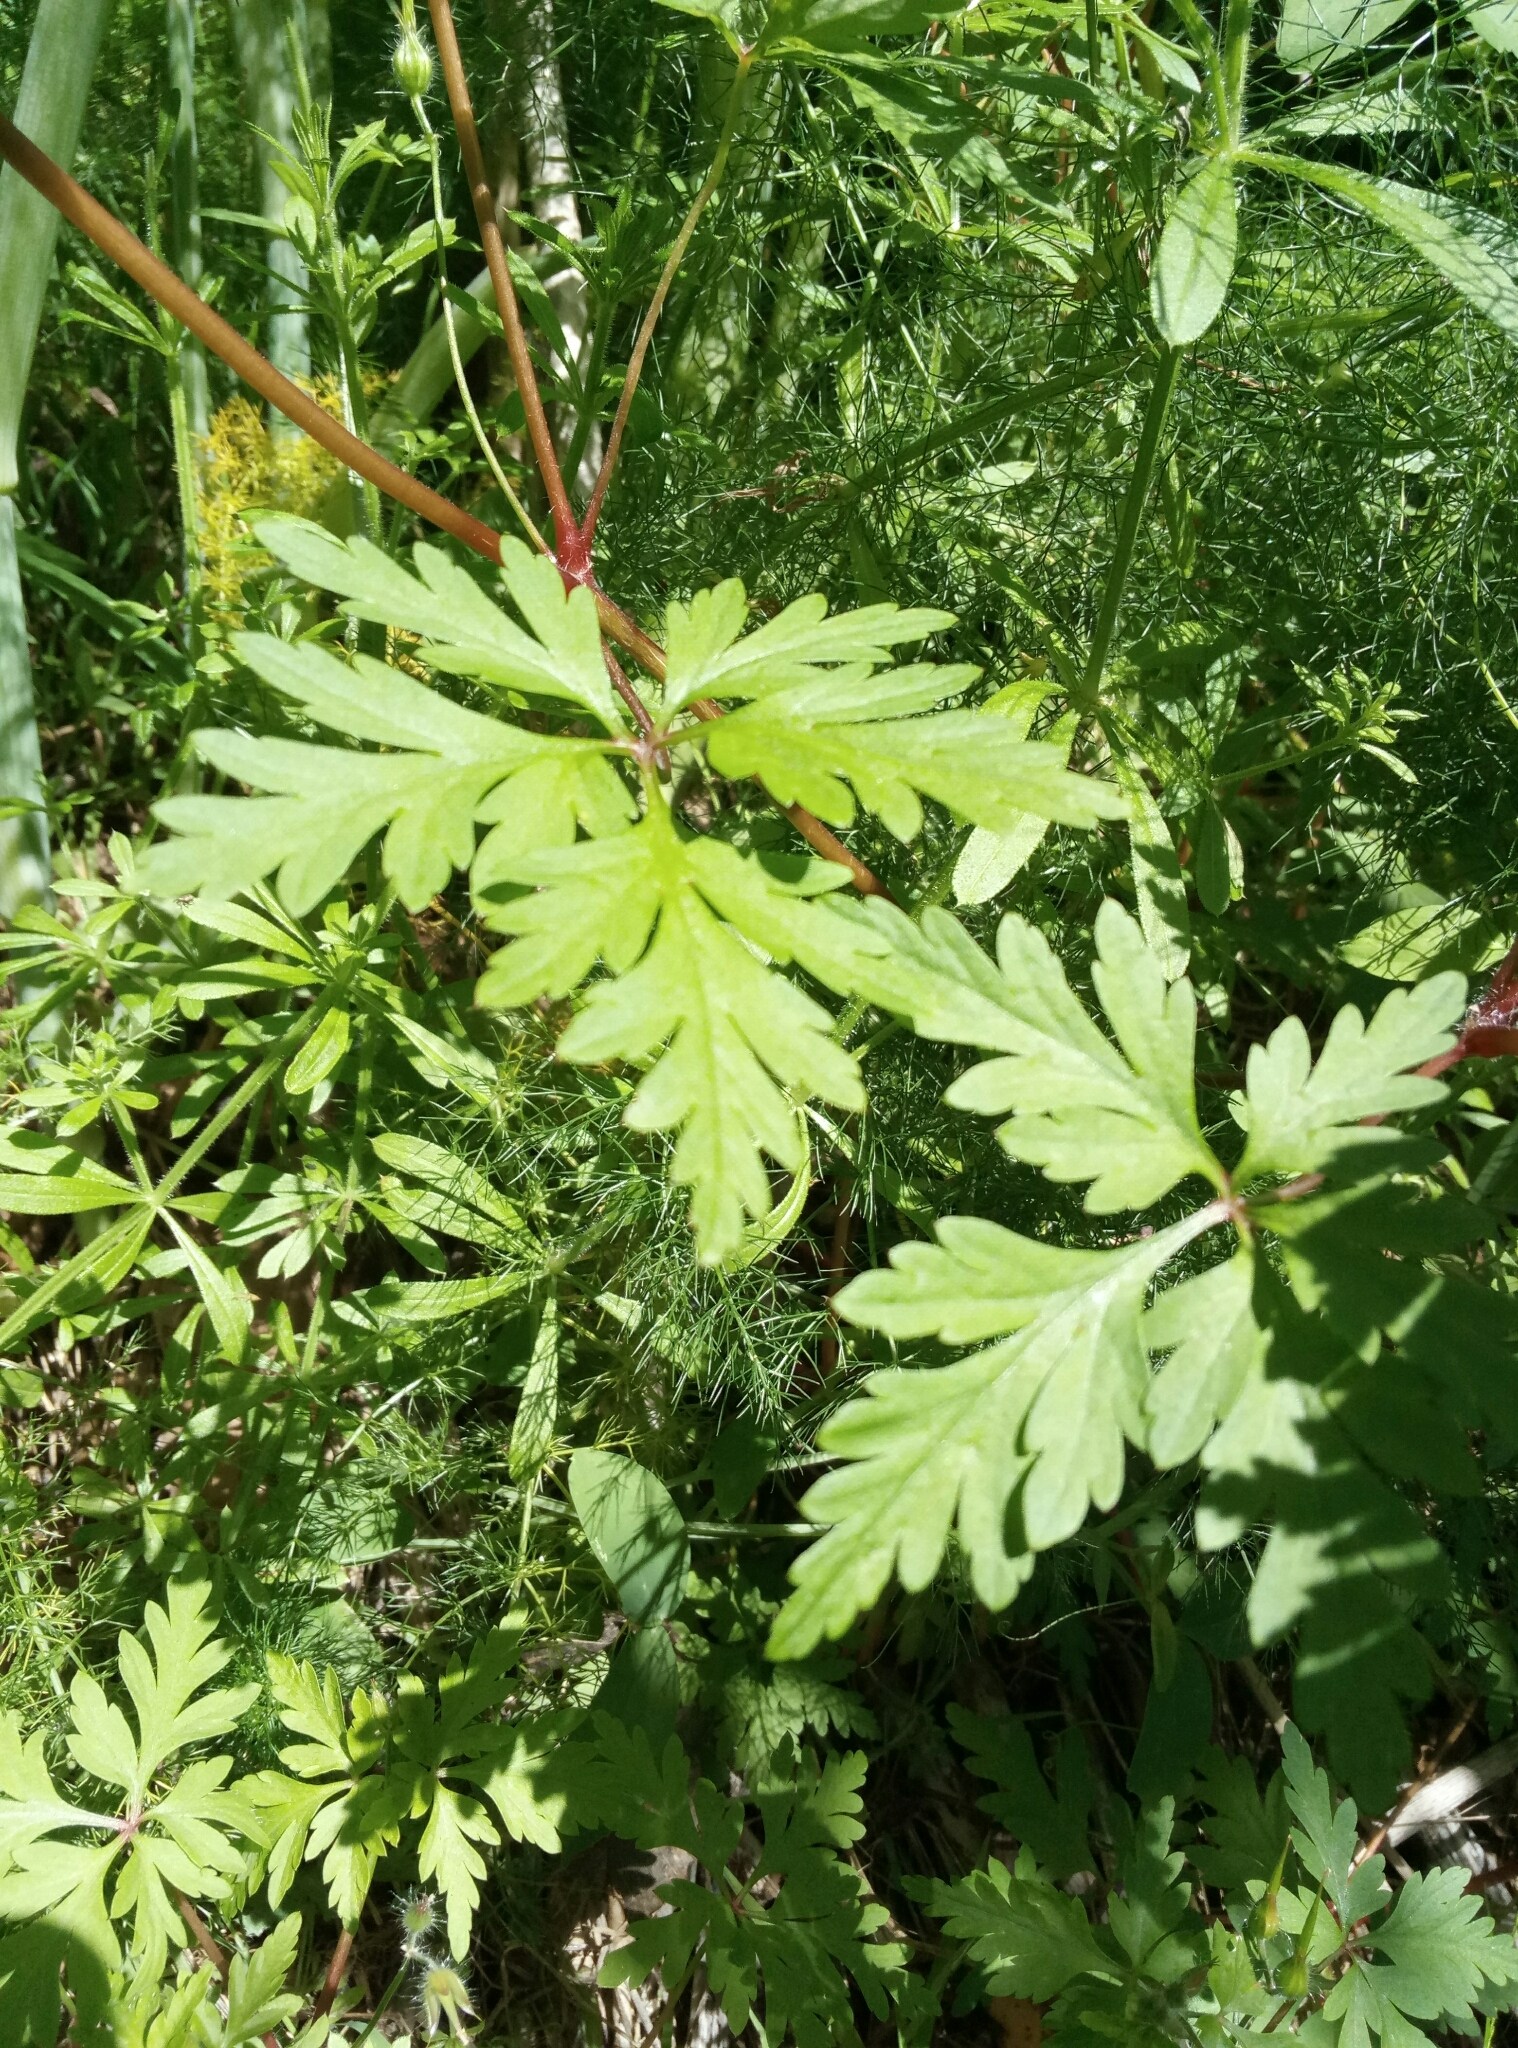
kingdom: Plantae
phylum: Tracheophyta
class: Magnoliopsida
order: Geraniales
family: Geraniaceae
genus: Geranium
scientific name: Geranium robertianum
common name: Herb-robert
